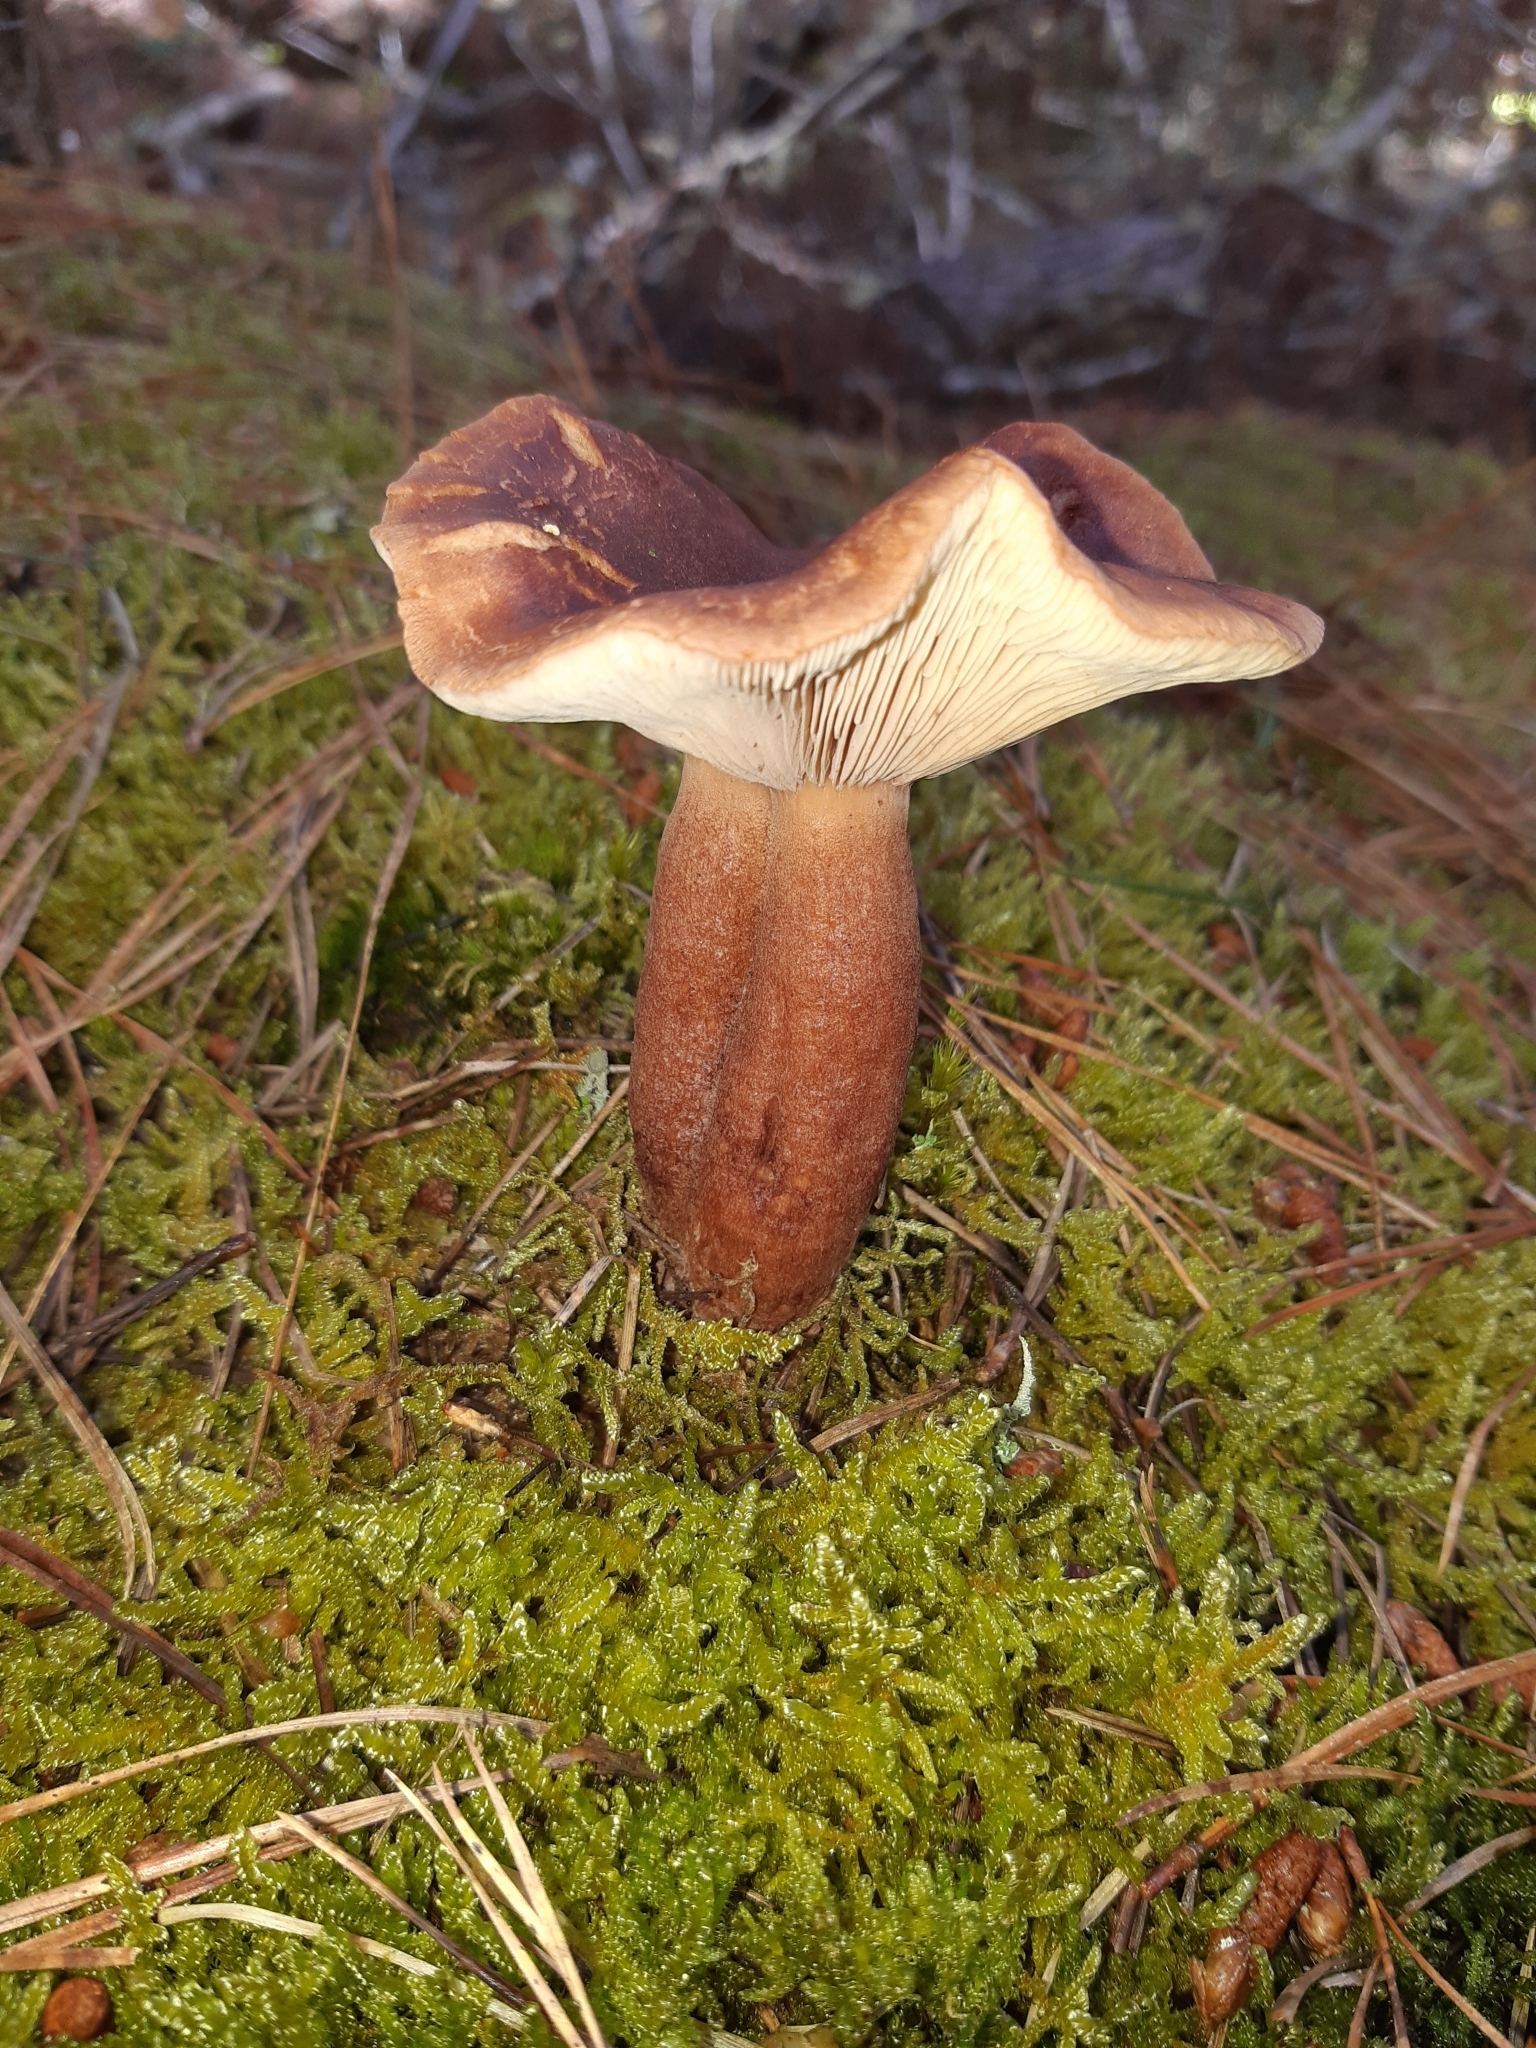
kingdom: Fungi
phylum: Basidiomycota
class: Agaricomycetes
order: Russulales
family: Russulaceae
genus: Lactarius
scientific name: Lactarius rufus
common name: Rufous milk-cap
